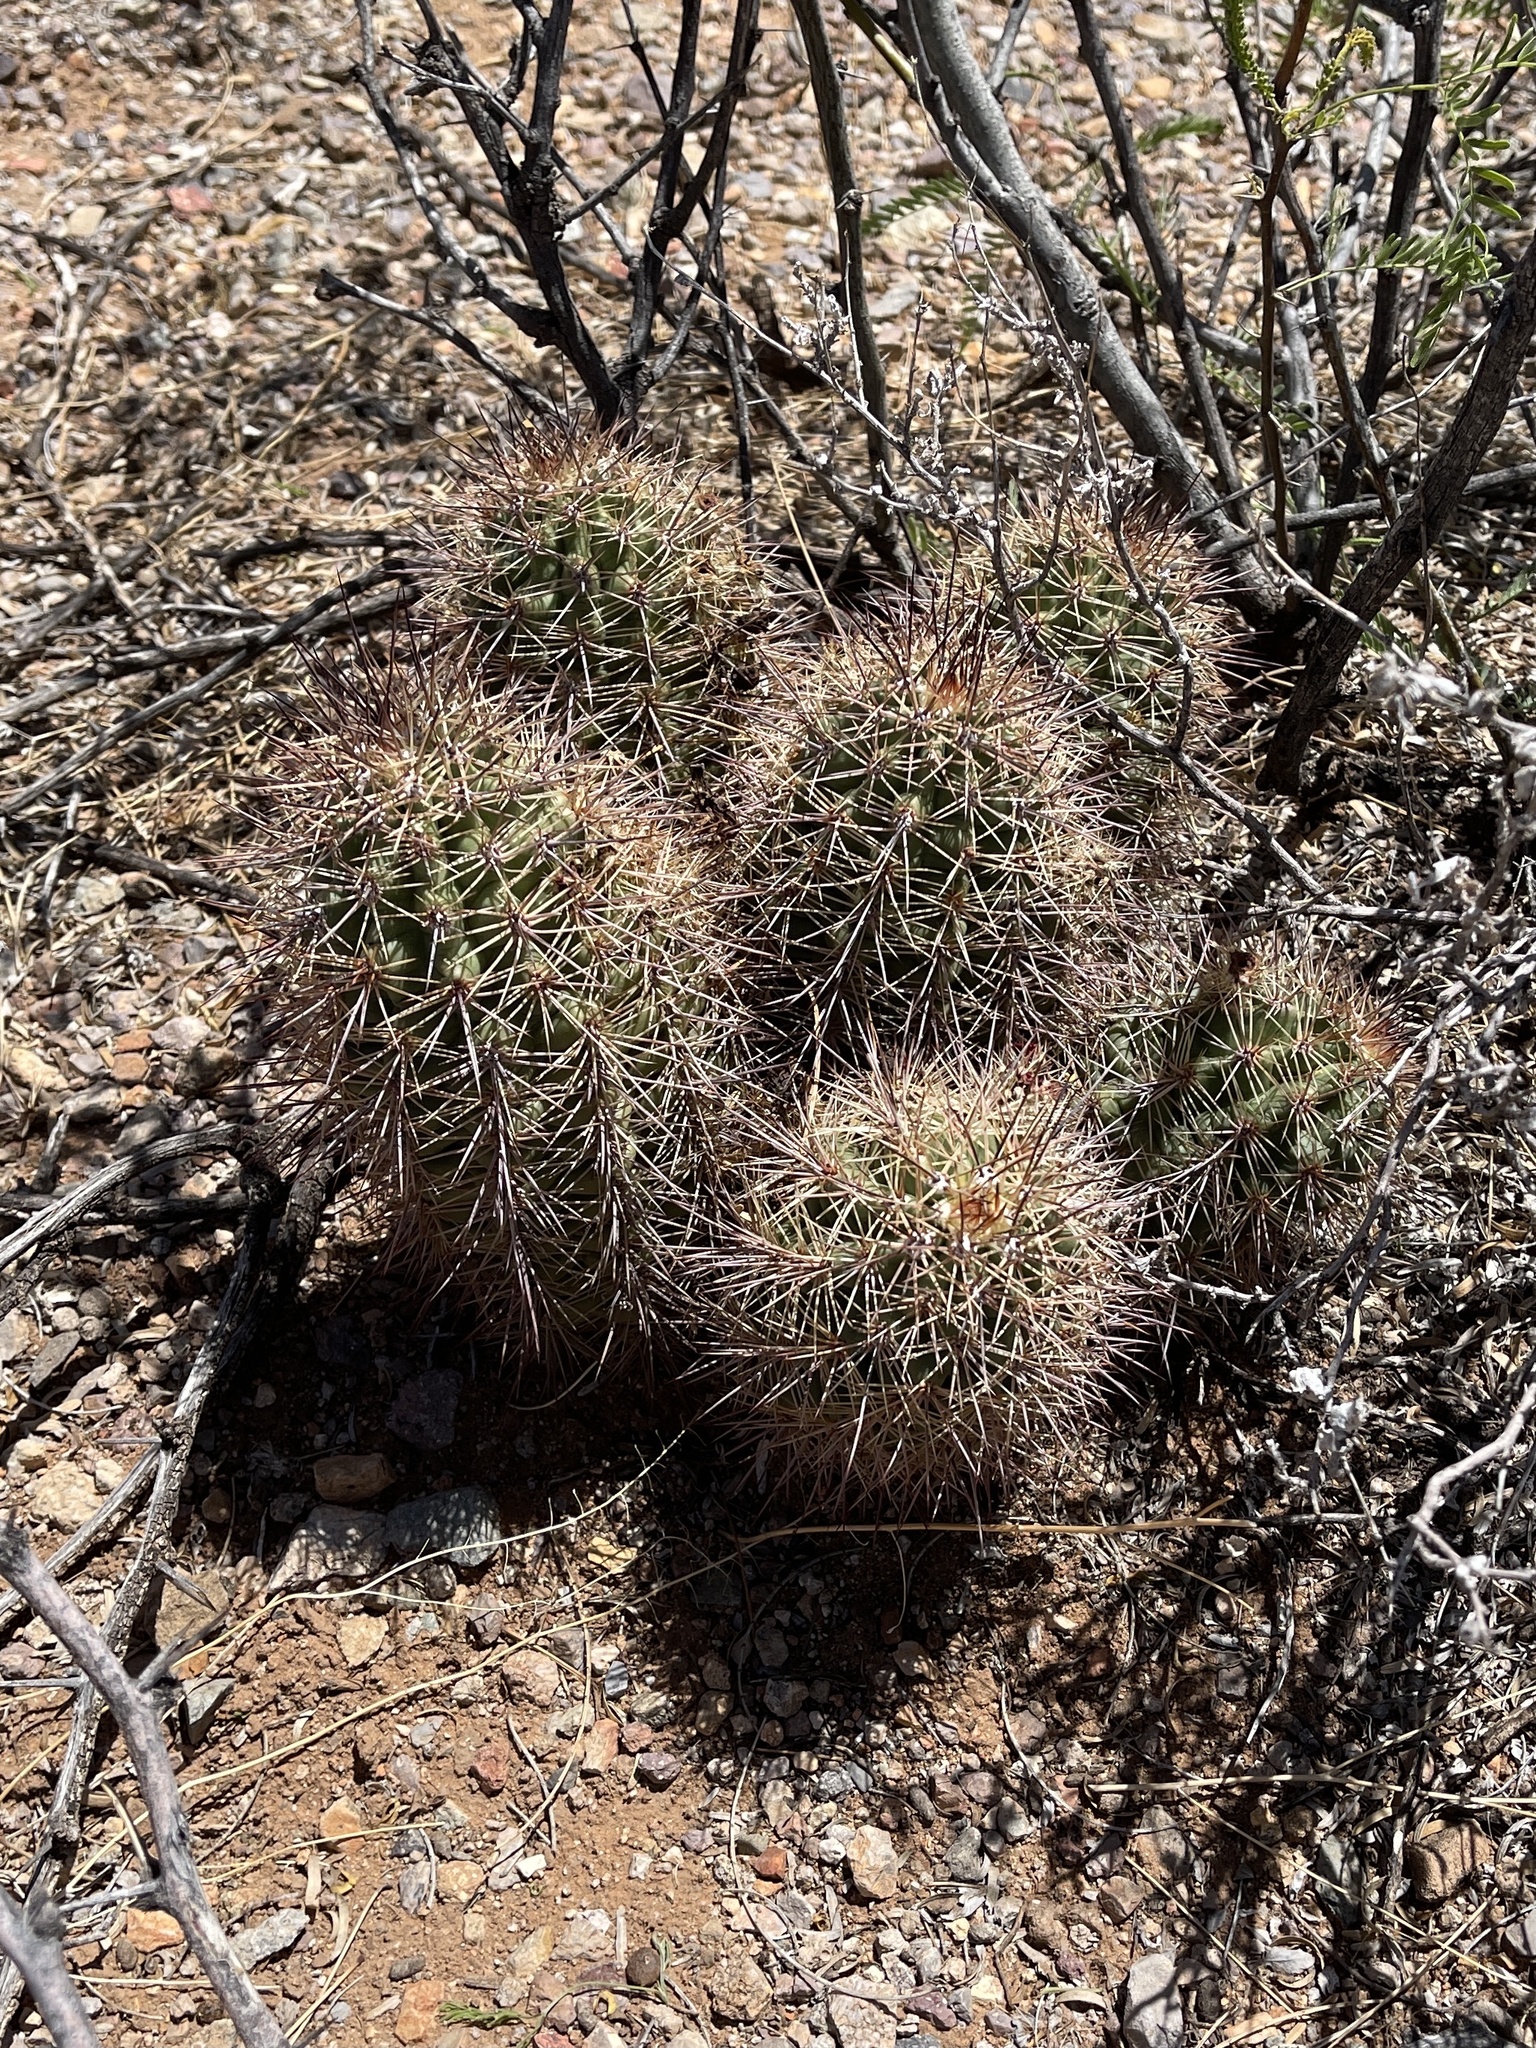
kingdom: Plantae
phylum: Tracheophyta
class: Magnoliopsida
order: Caryophyllales
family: Cactaceae
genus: Echinocereus
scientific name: Echinocereus coccineus
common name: Scarlet hedgehog cactus
